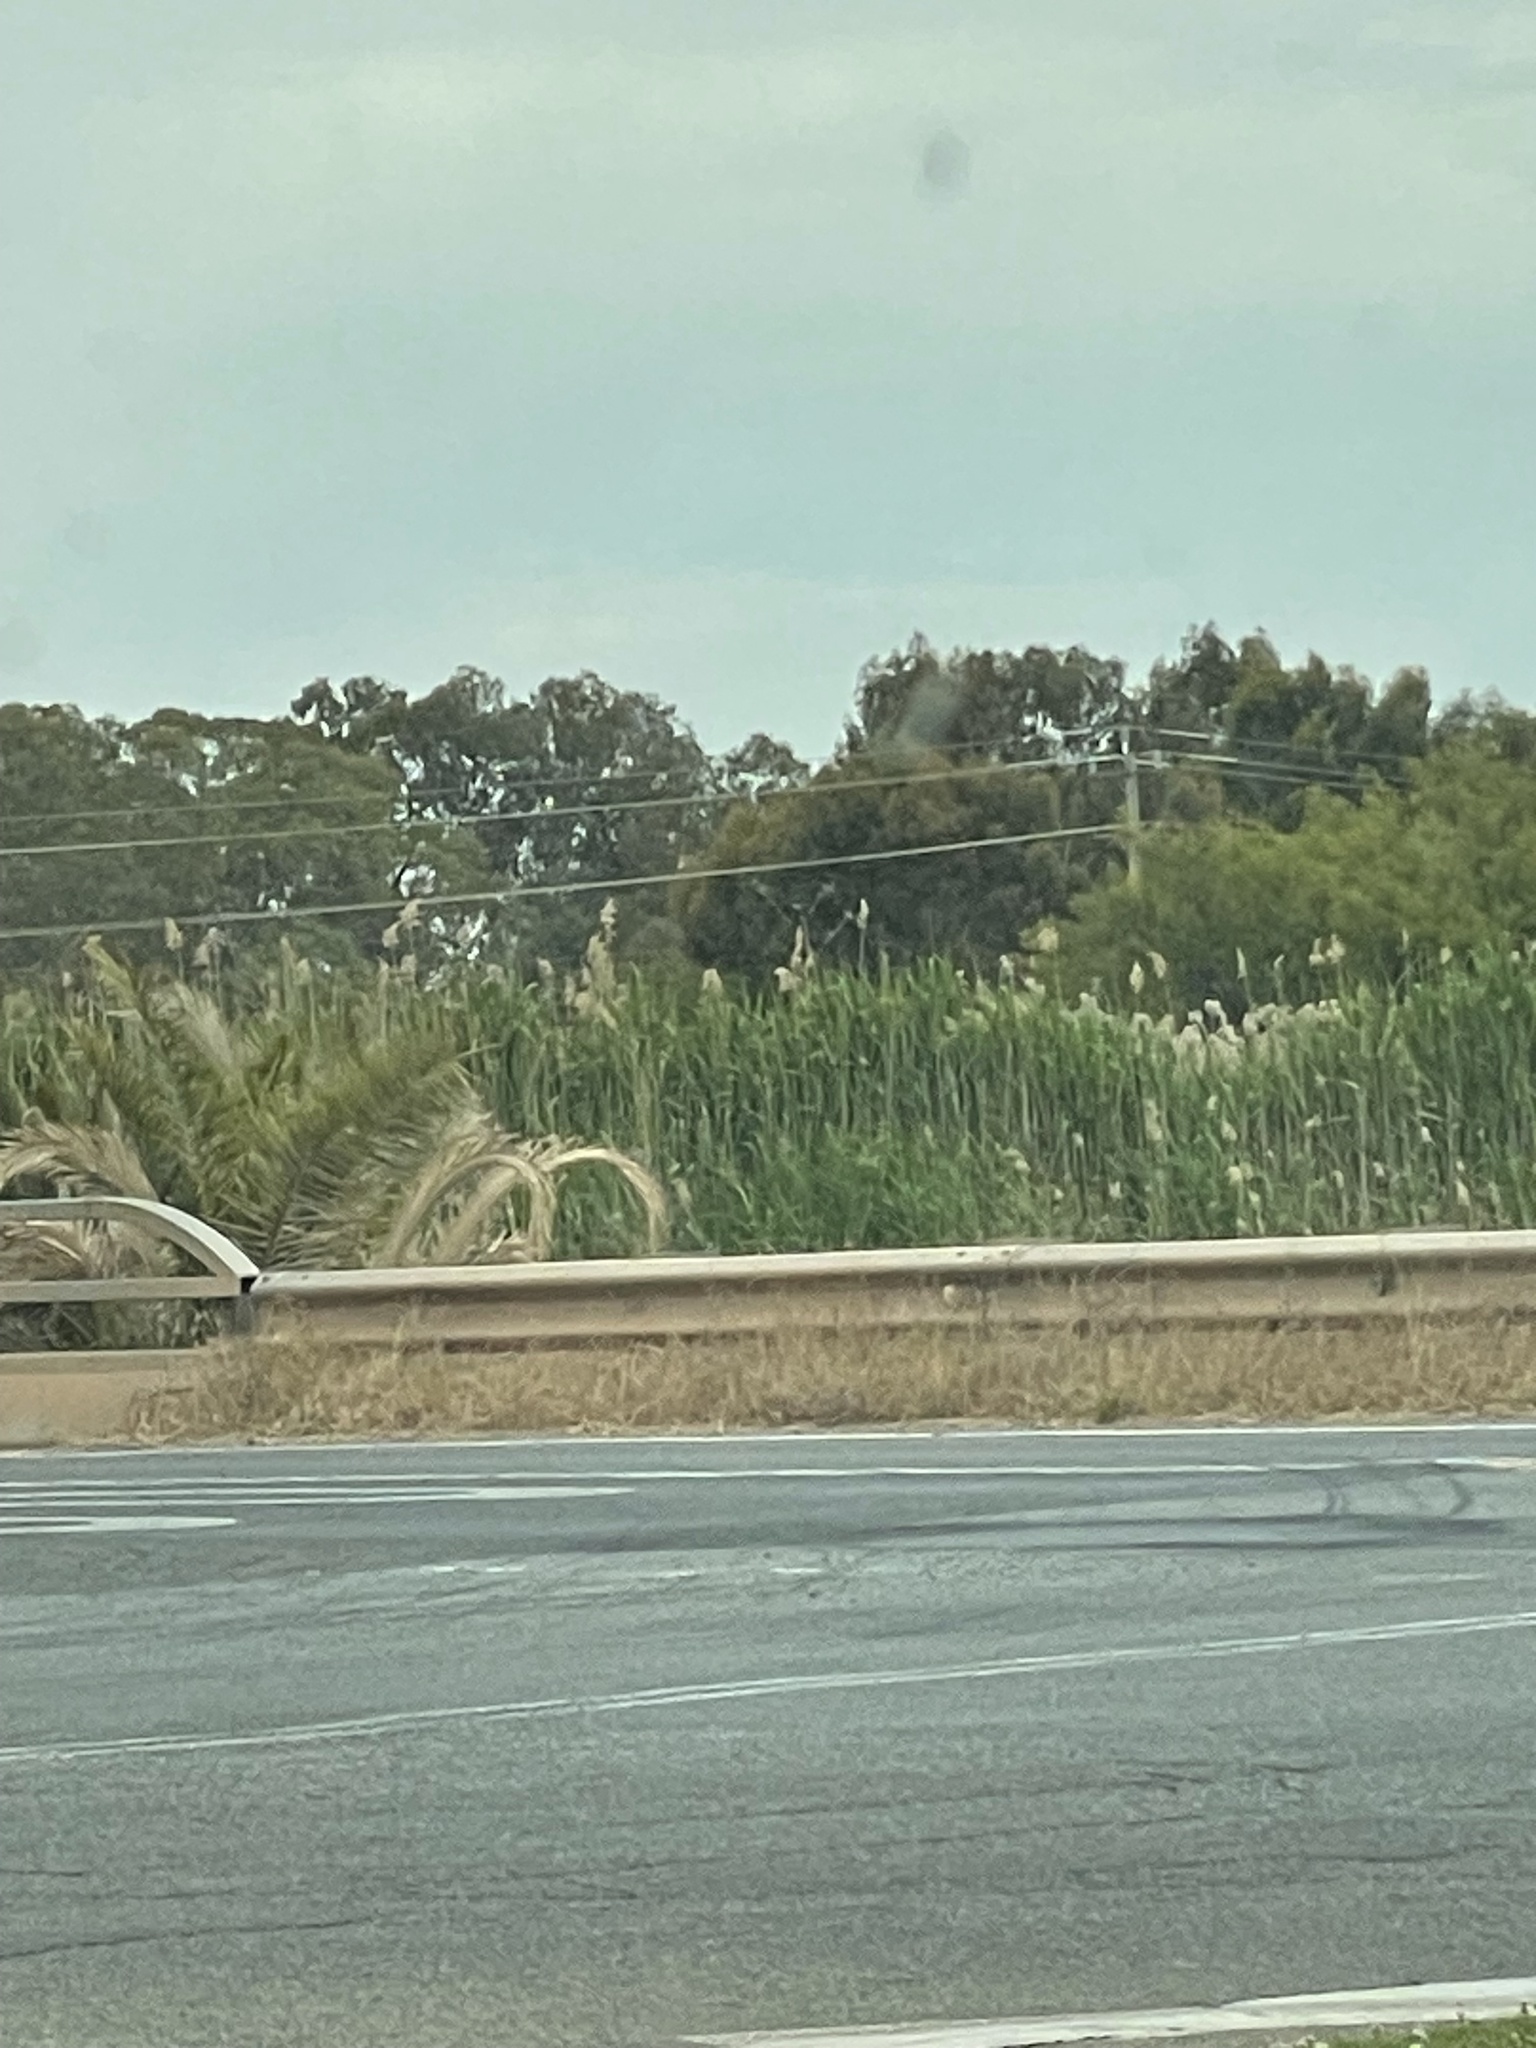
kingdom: Plantae
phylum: Tracheophyta
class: Liliopsida
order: Poales
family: Poaceae
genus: Phragmites
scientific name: Phragmites australis
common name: Common reed
